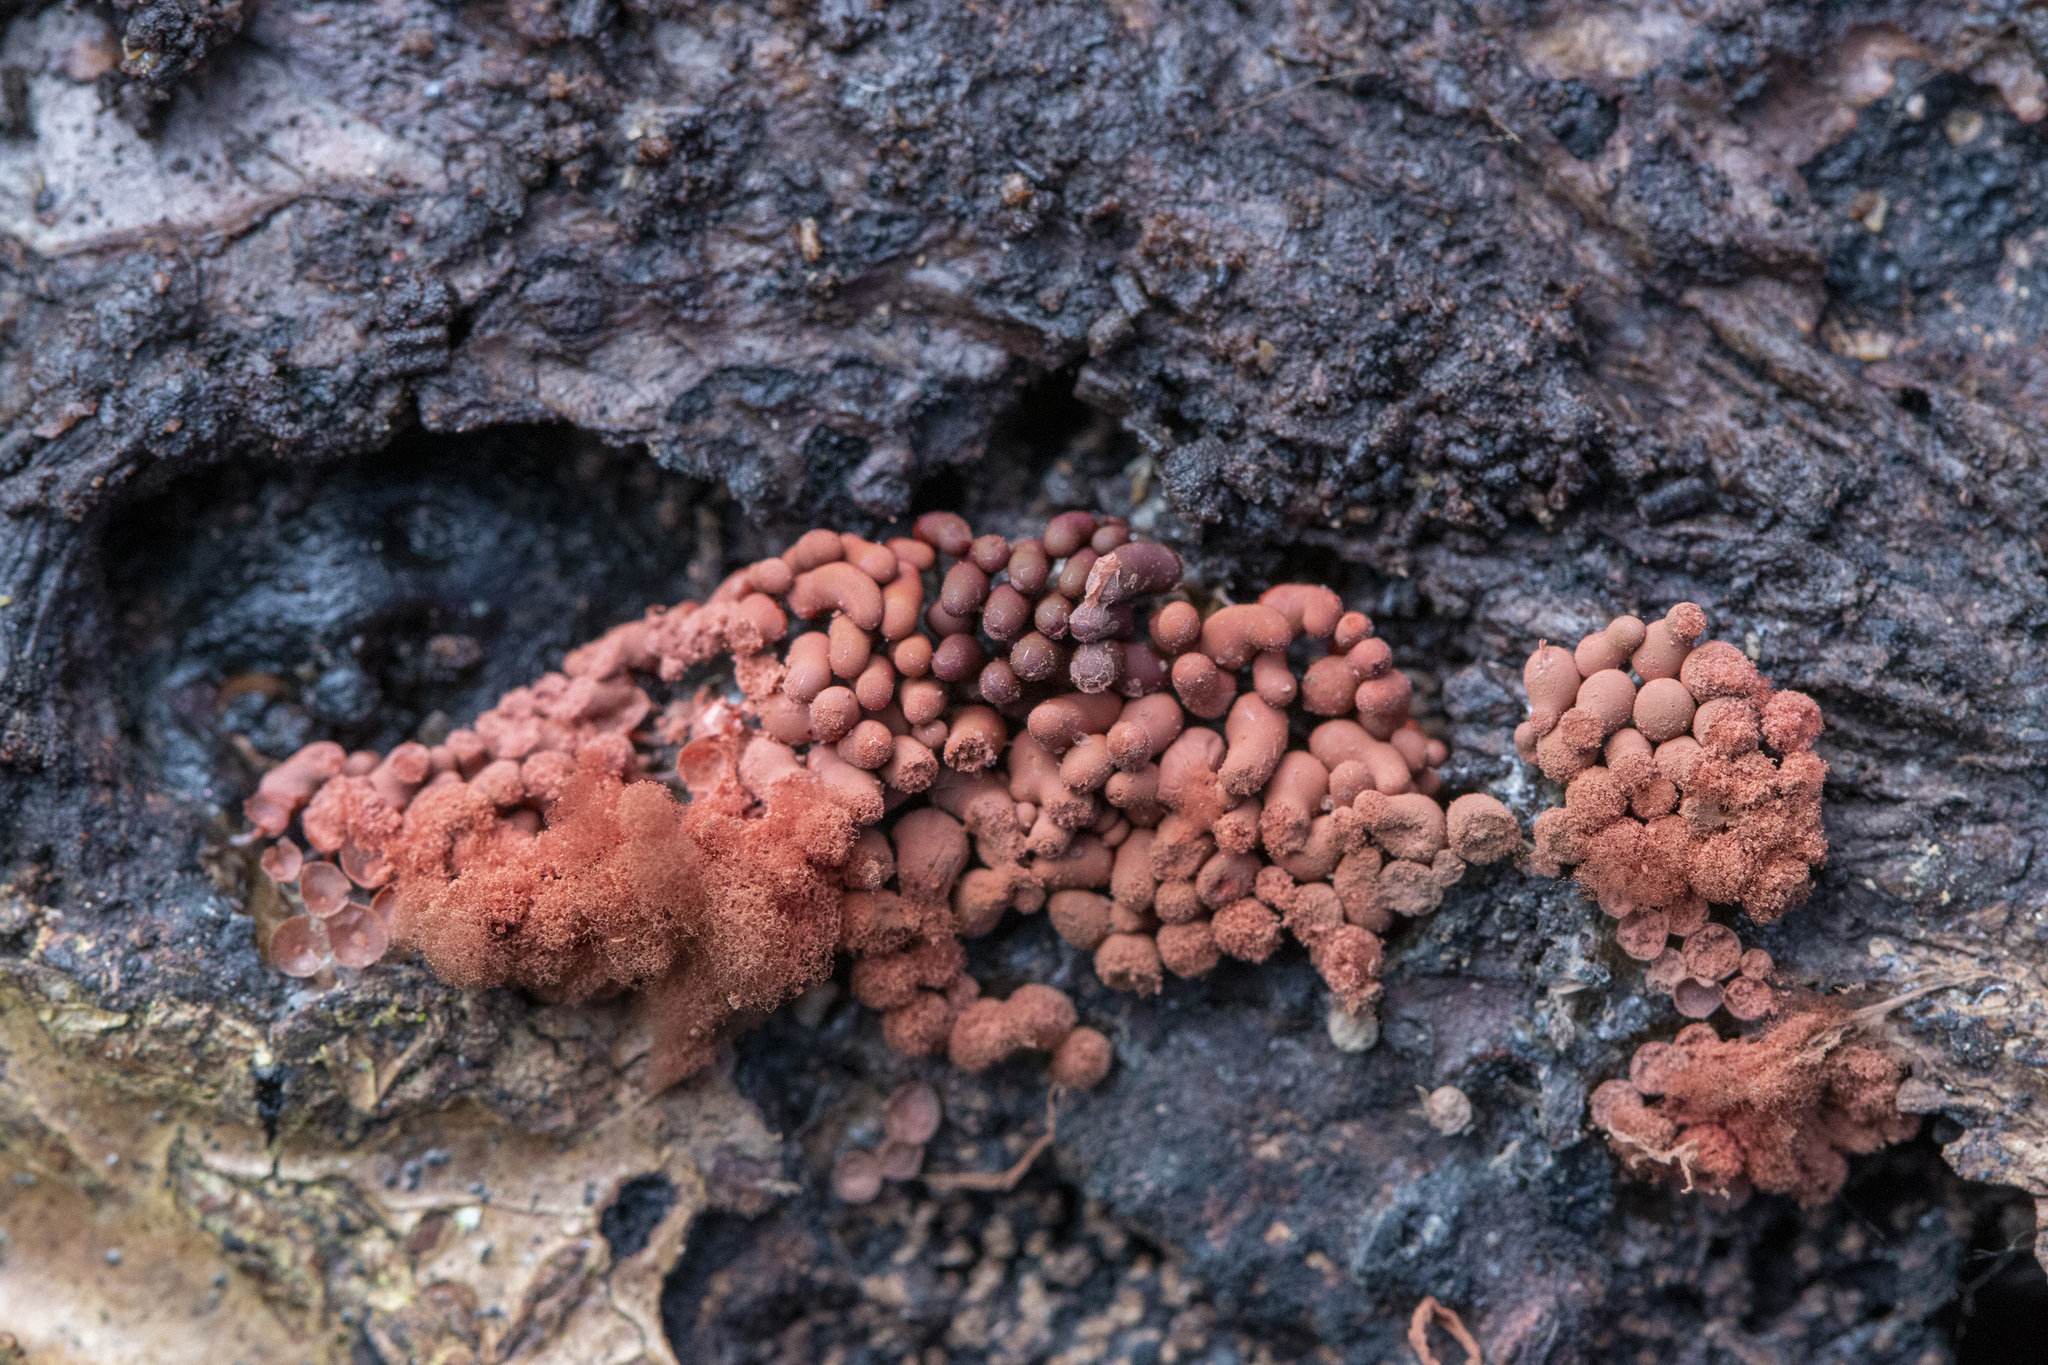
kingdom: Protozoa
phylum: Mycetozoa
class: Myxomycetes
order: Trichiales
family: Arcyriaceae
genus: Arcyria
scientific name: Arcyria denudata
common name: Carnival candy slime mold
